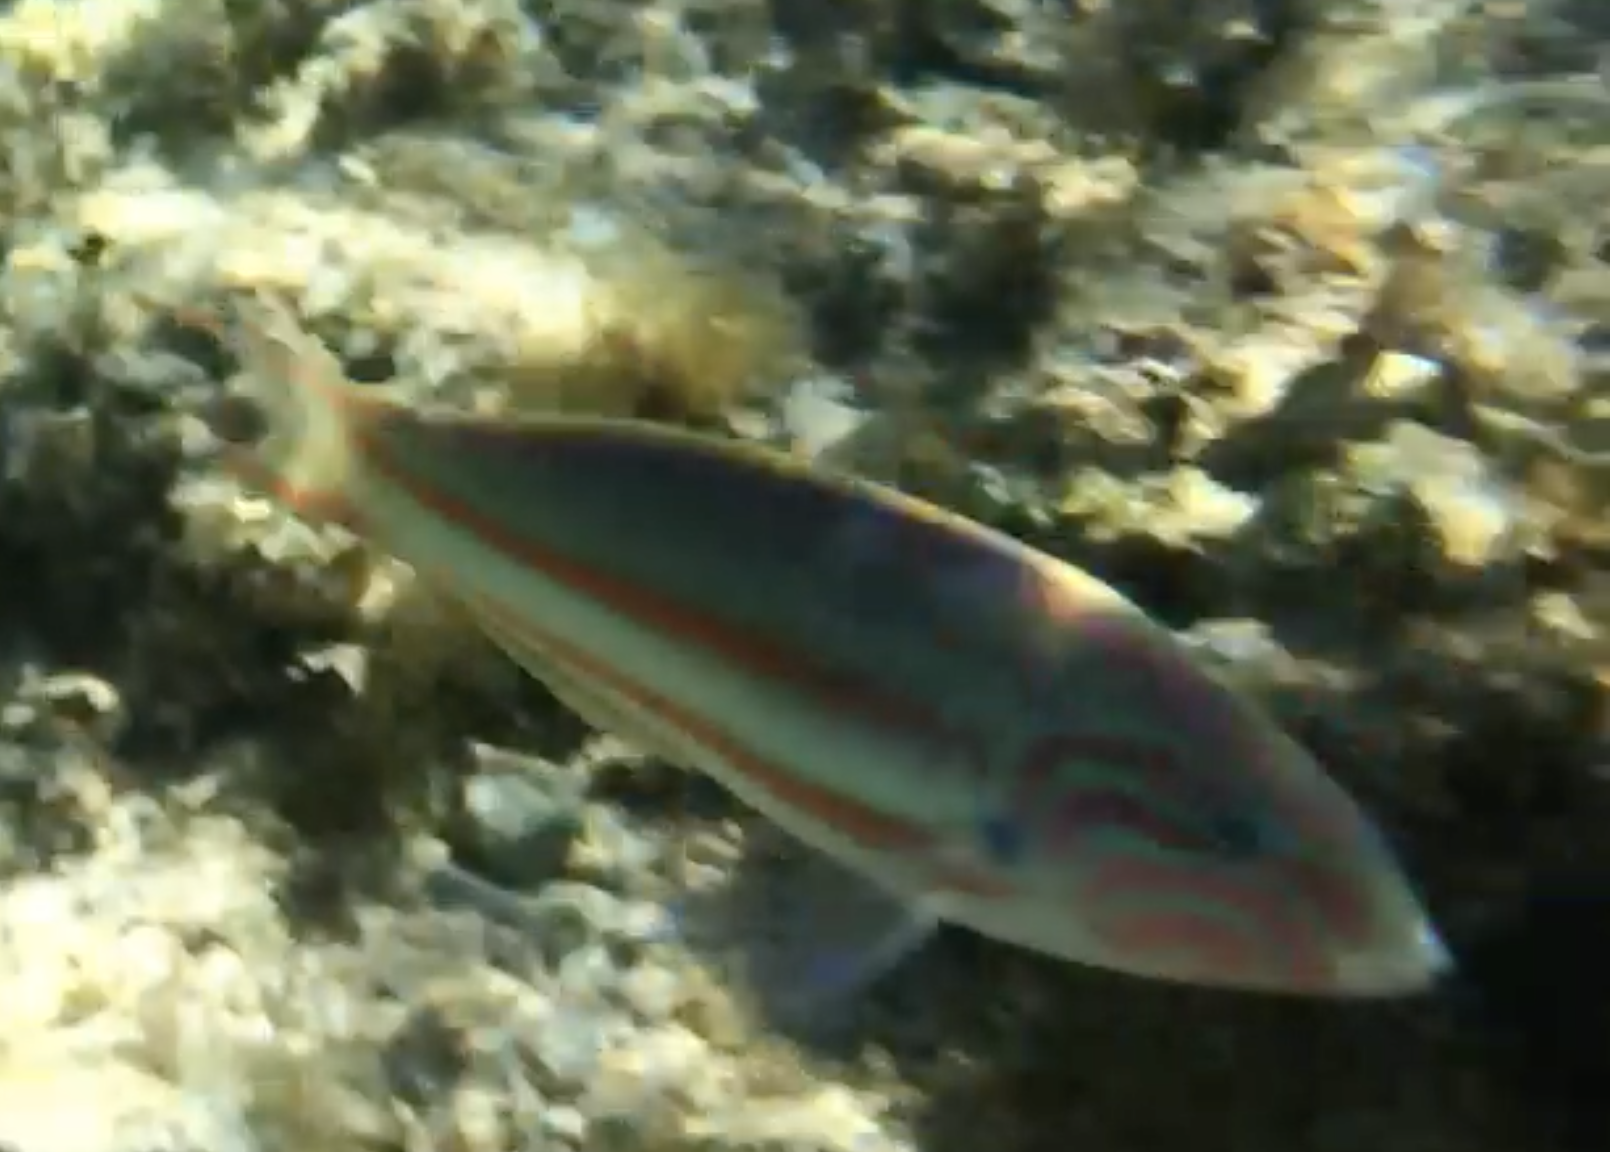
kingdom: Animalia
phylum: Chordata
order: Perciformes
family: Labridae
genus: Thalassoma
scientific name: Thalassoma rueppellii
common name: Klunzinger's wrasse
